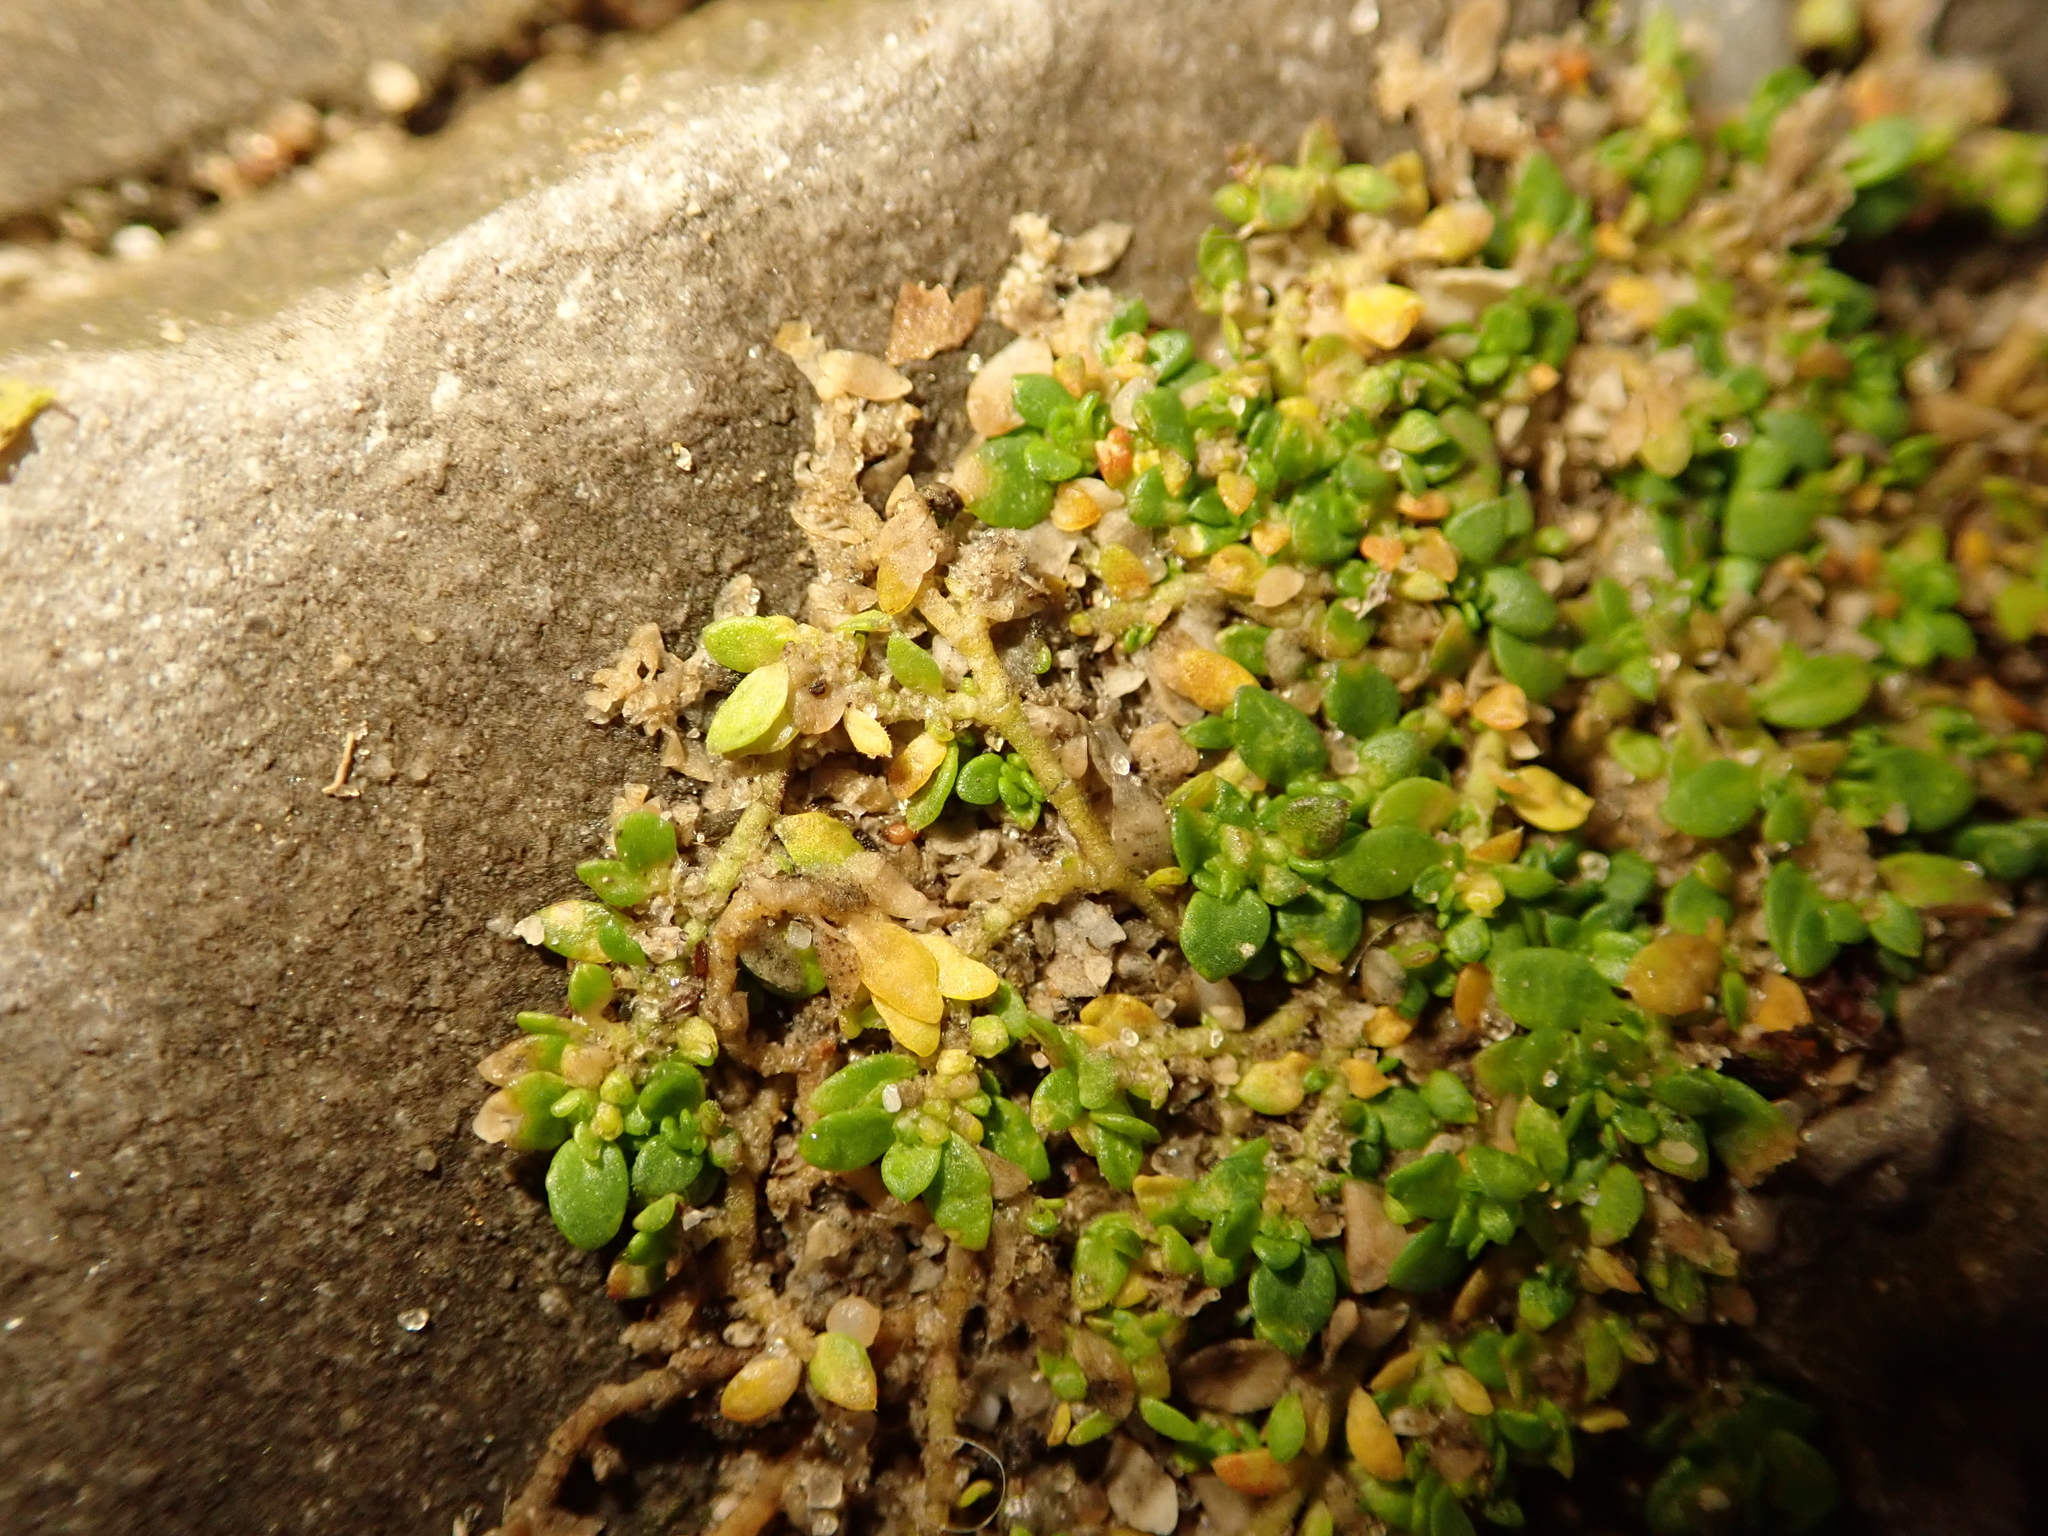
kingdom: Plantae
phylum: Tracheophyta
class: Magnoliopsida
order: Caryophyllales
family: Caryophyllaceae
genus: Herniaria
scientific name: Herniaria glabra
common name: Smooth rupturewort
